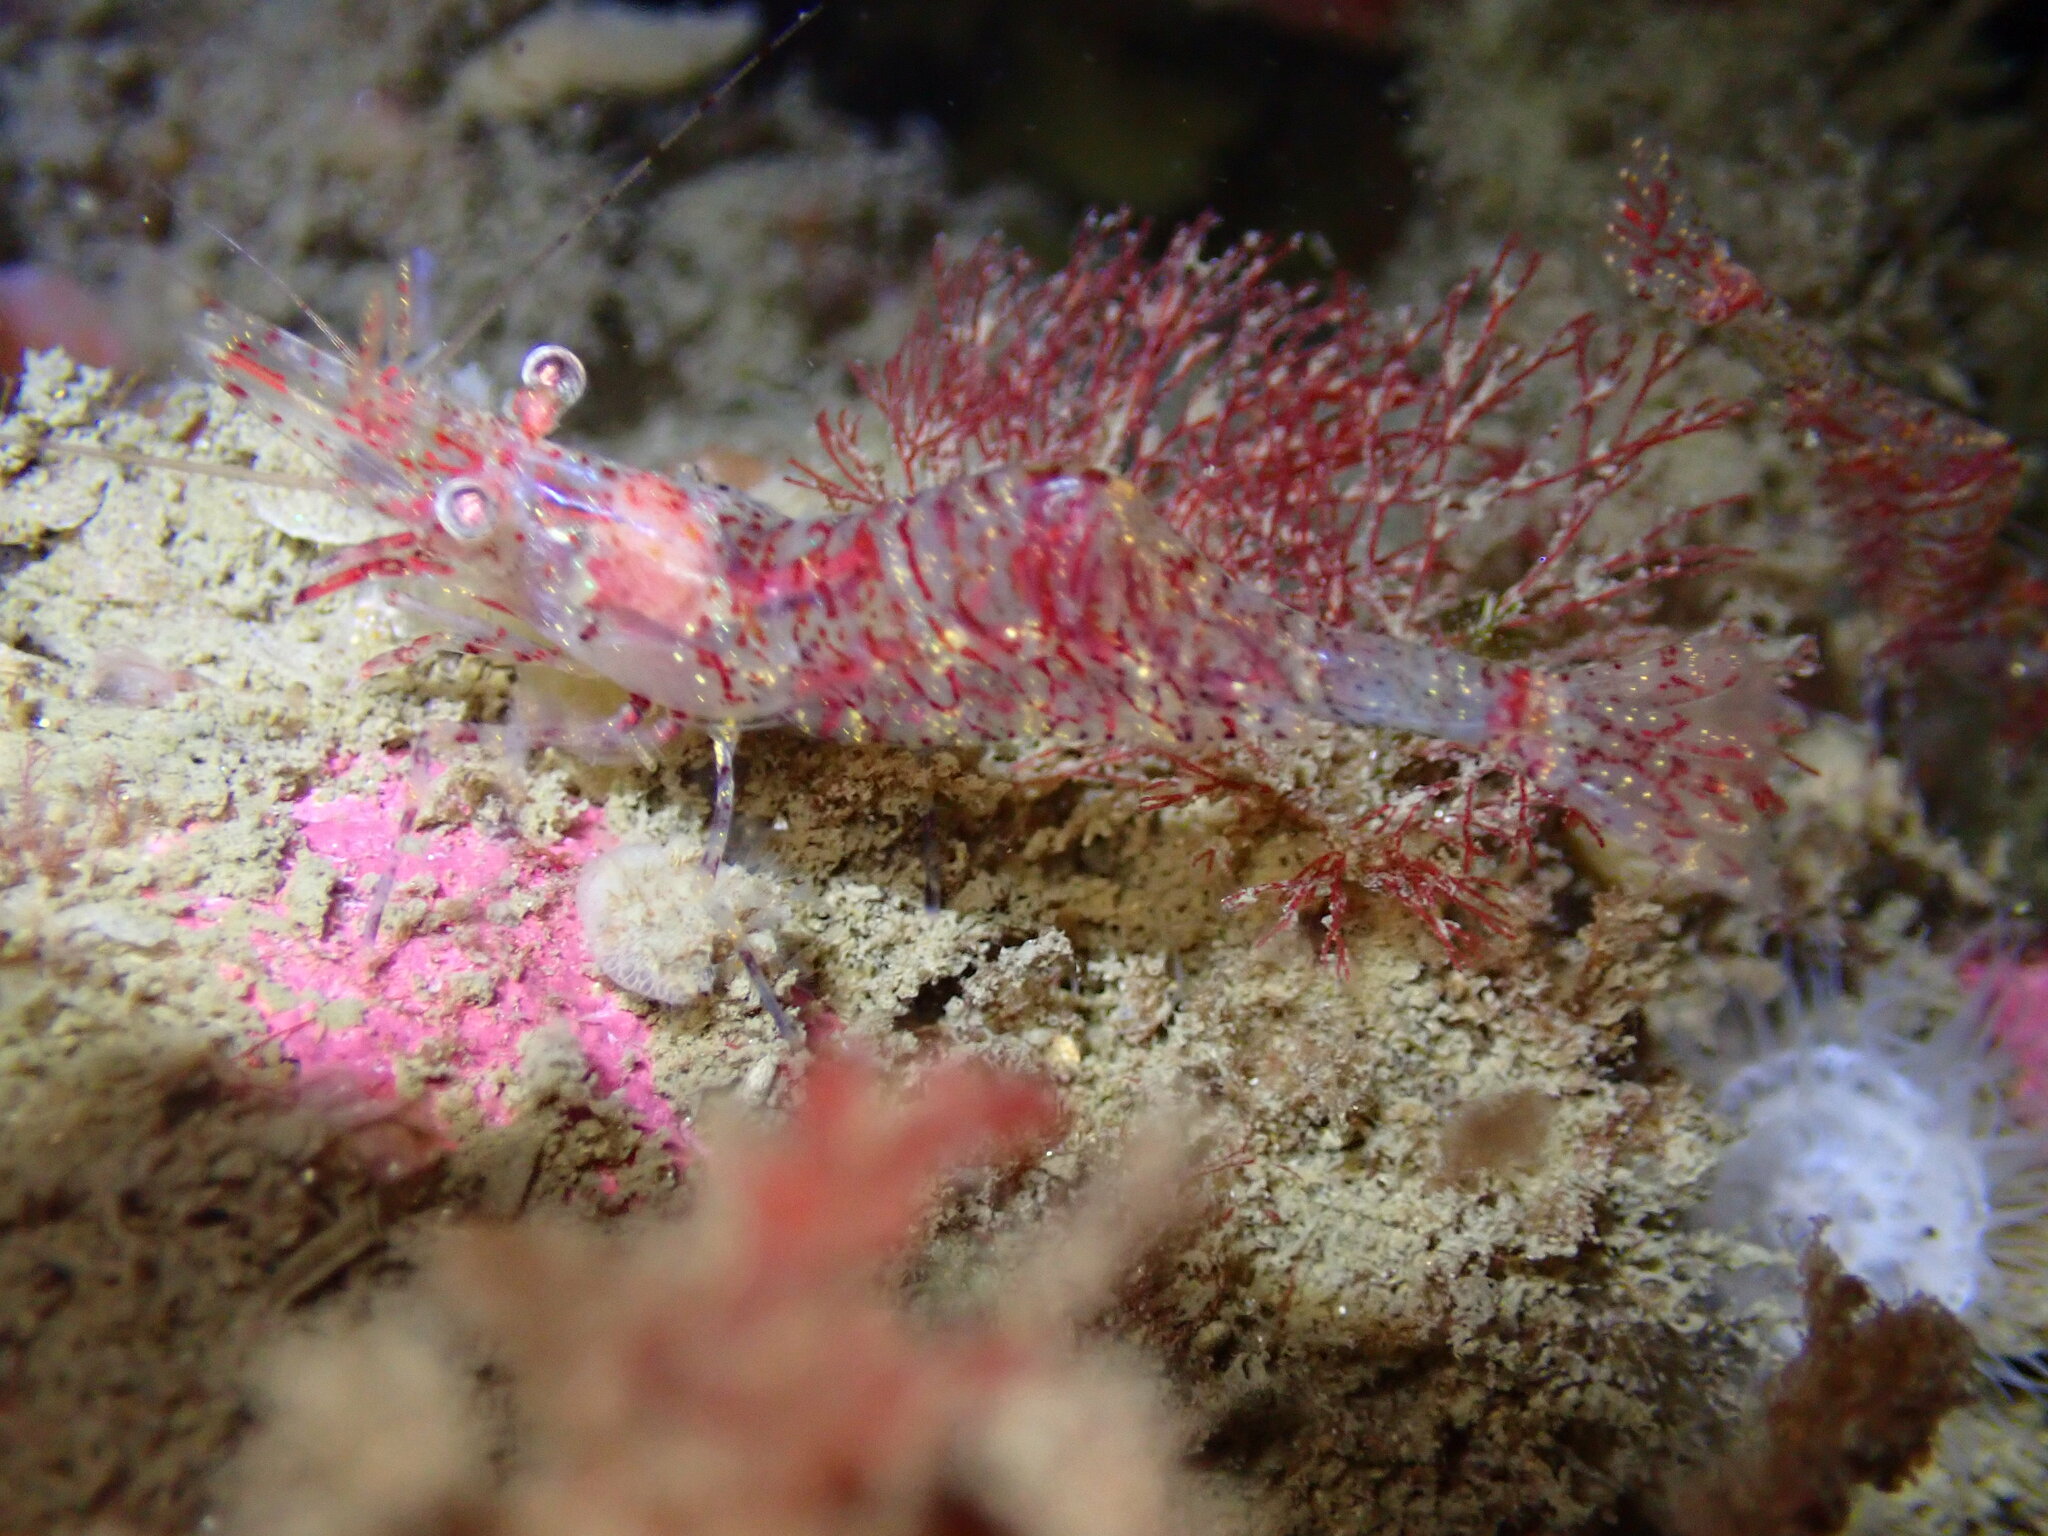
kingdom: Animalia
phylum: Arthropoda
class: Malacostraca
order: Decapoda
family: Thoridae
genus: Heptacarpus
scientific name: Heptacarpus tridens
